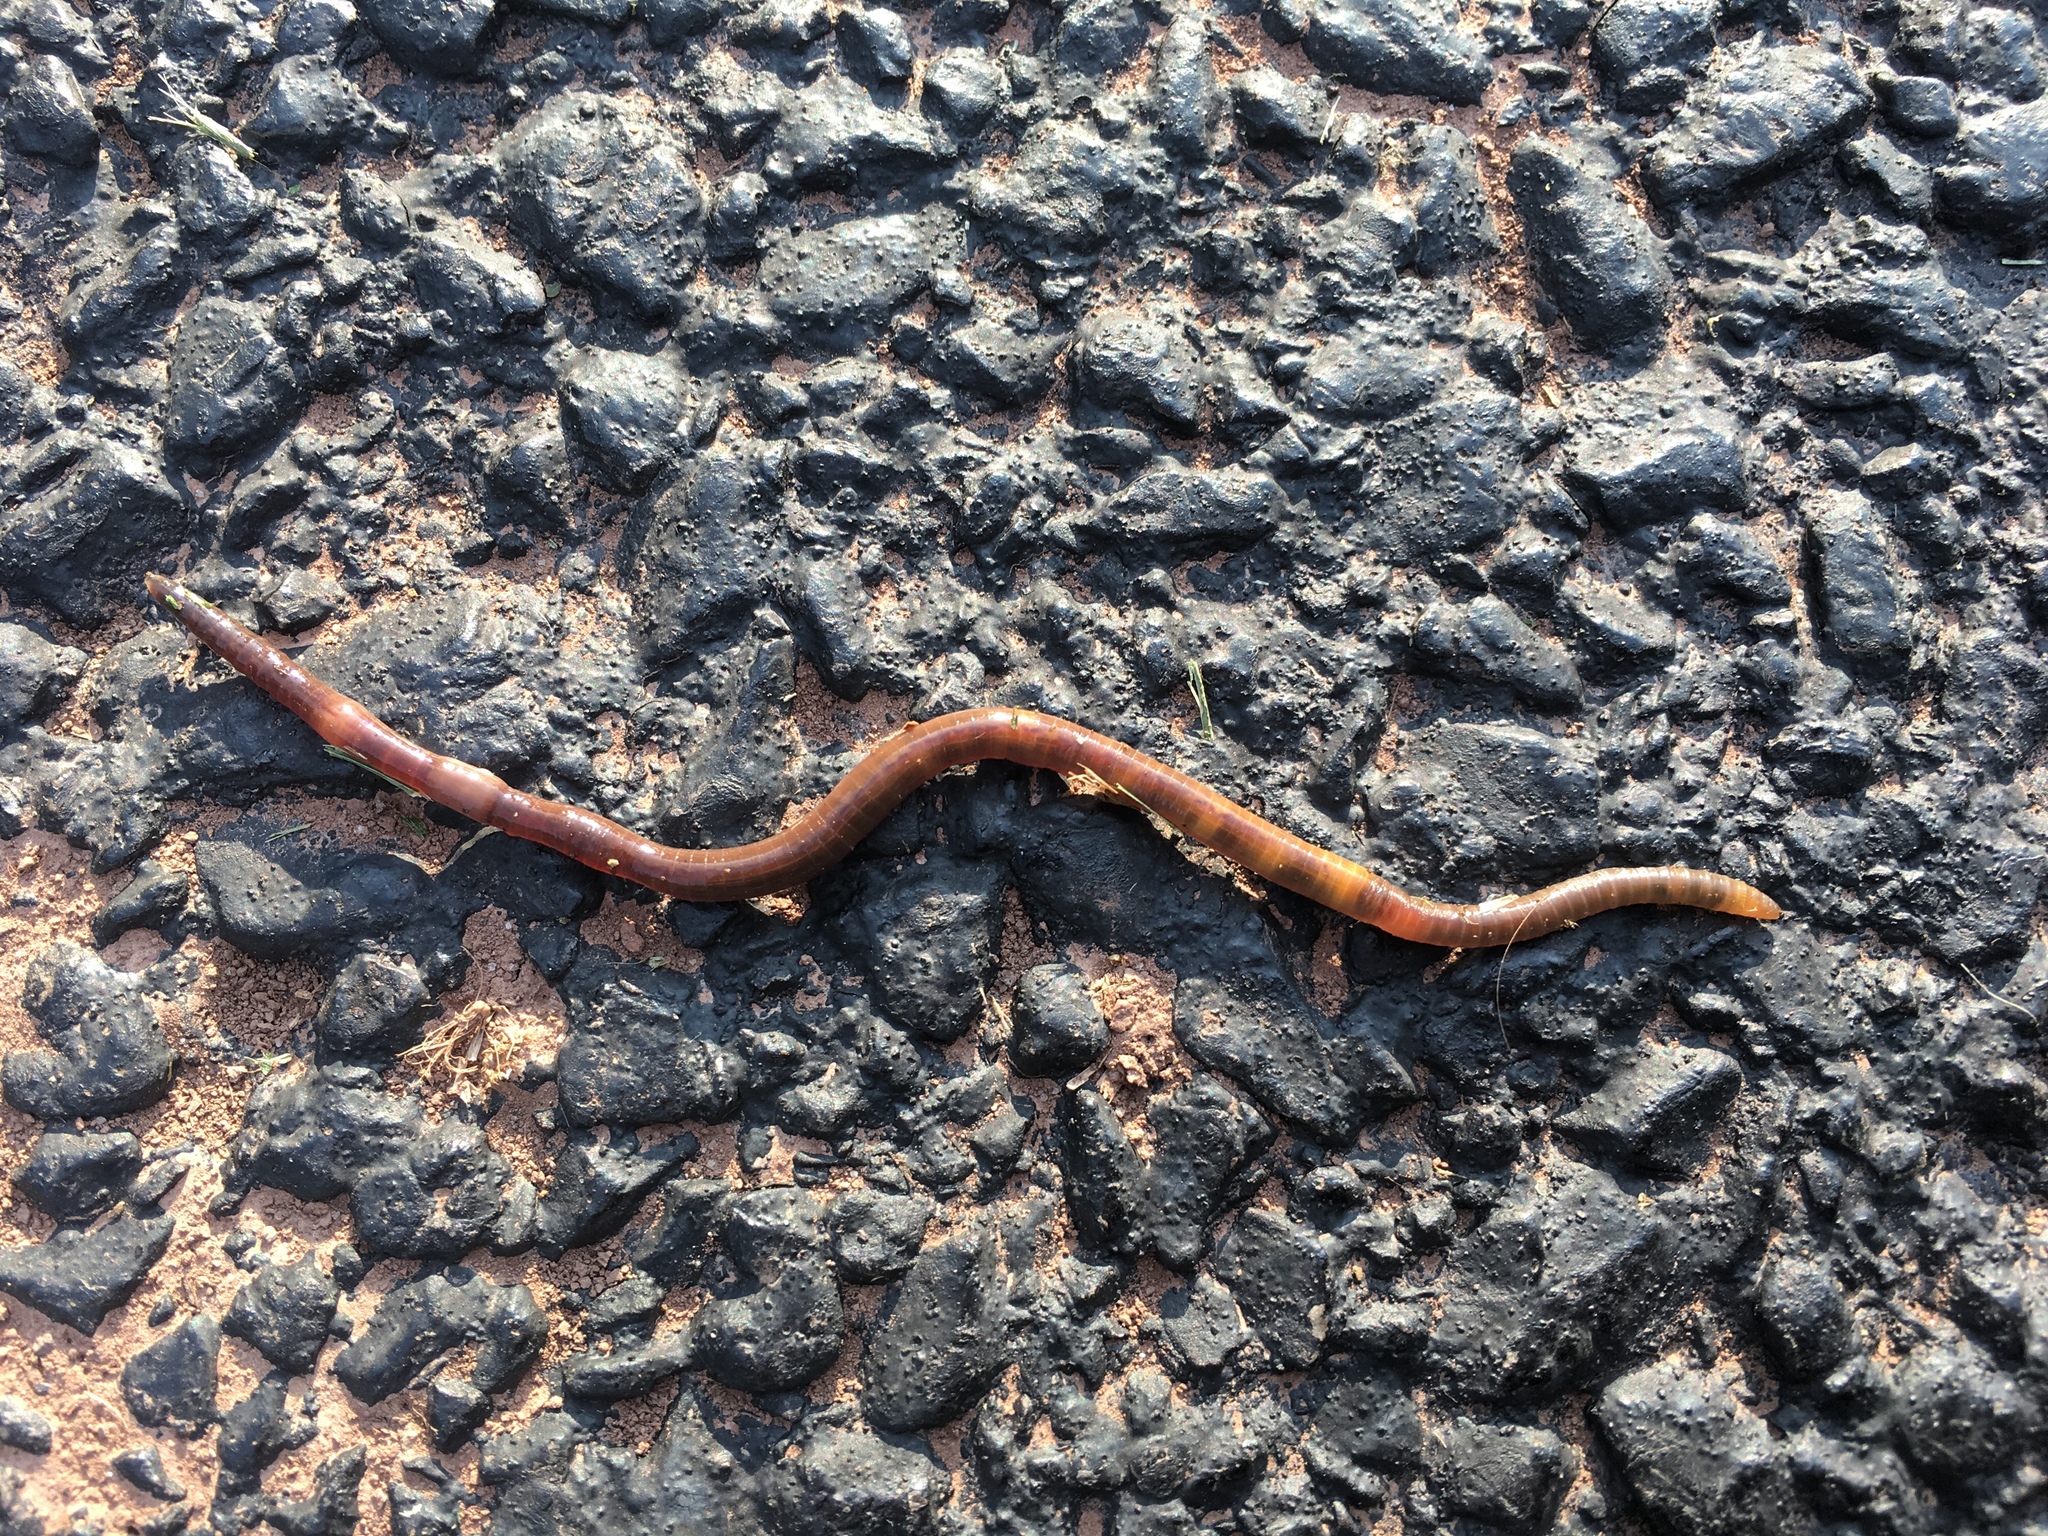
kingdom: Animalia
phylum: Annelida
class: Clitellata
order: Crassiclitellata
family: Lumbricidae
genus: Lumbricus
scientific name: Lumbricus terrestris
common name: Common earthworm
